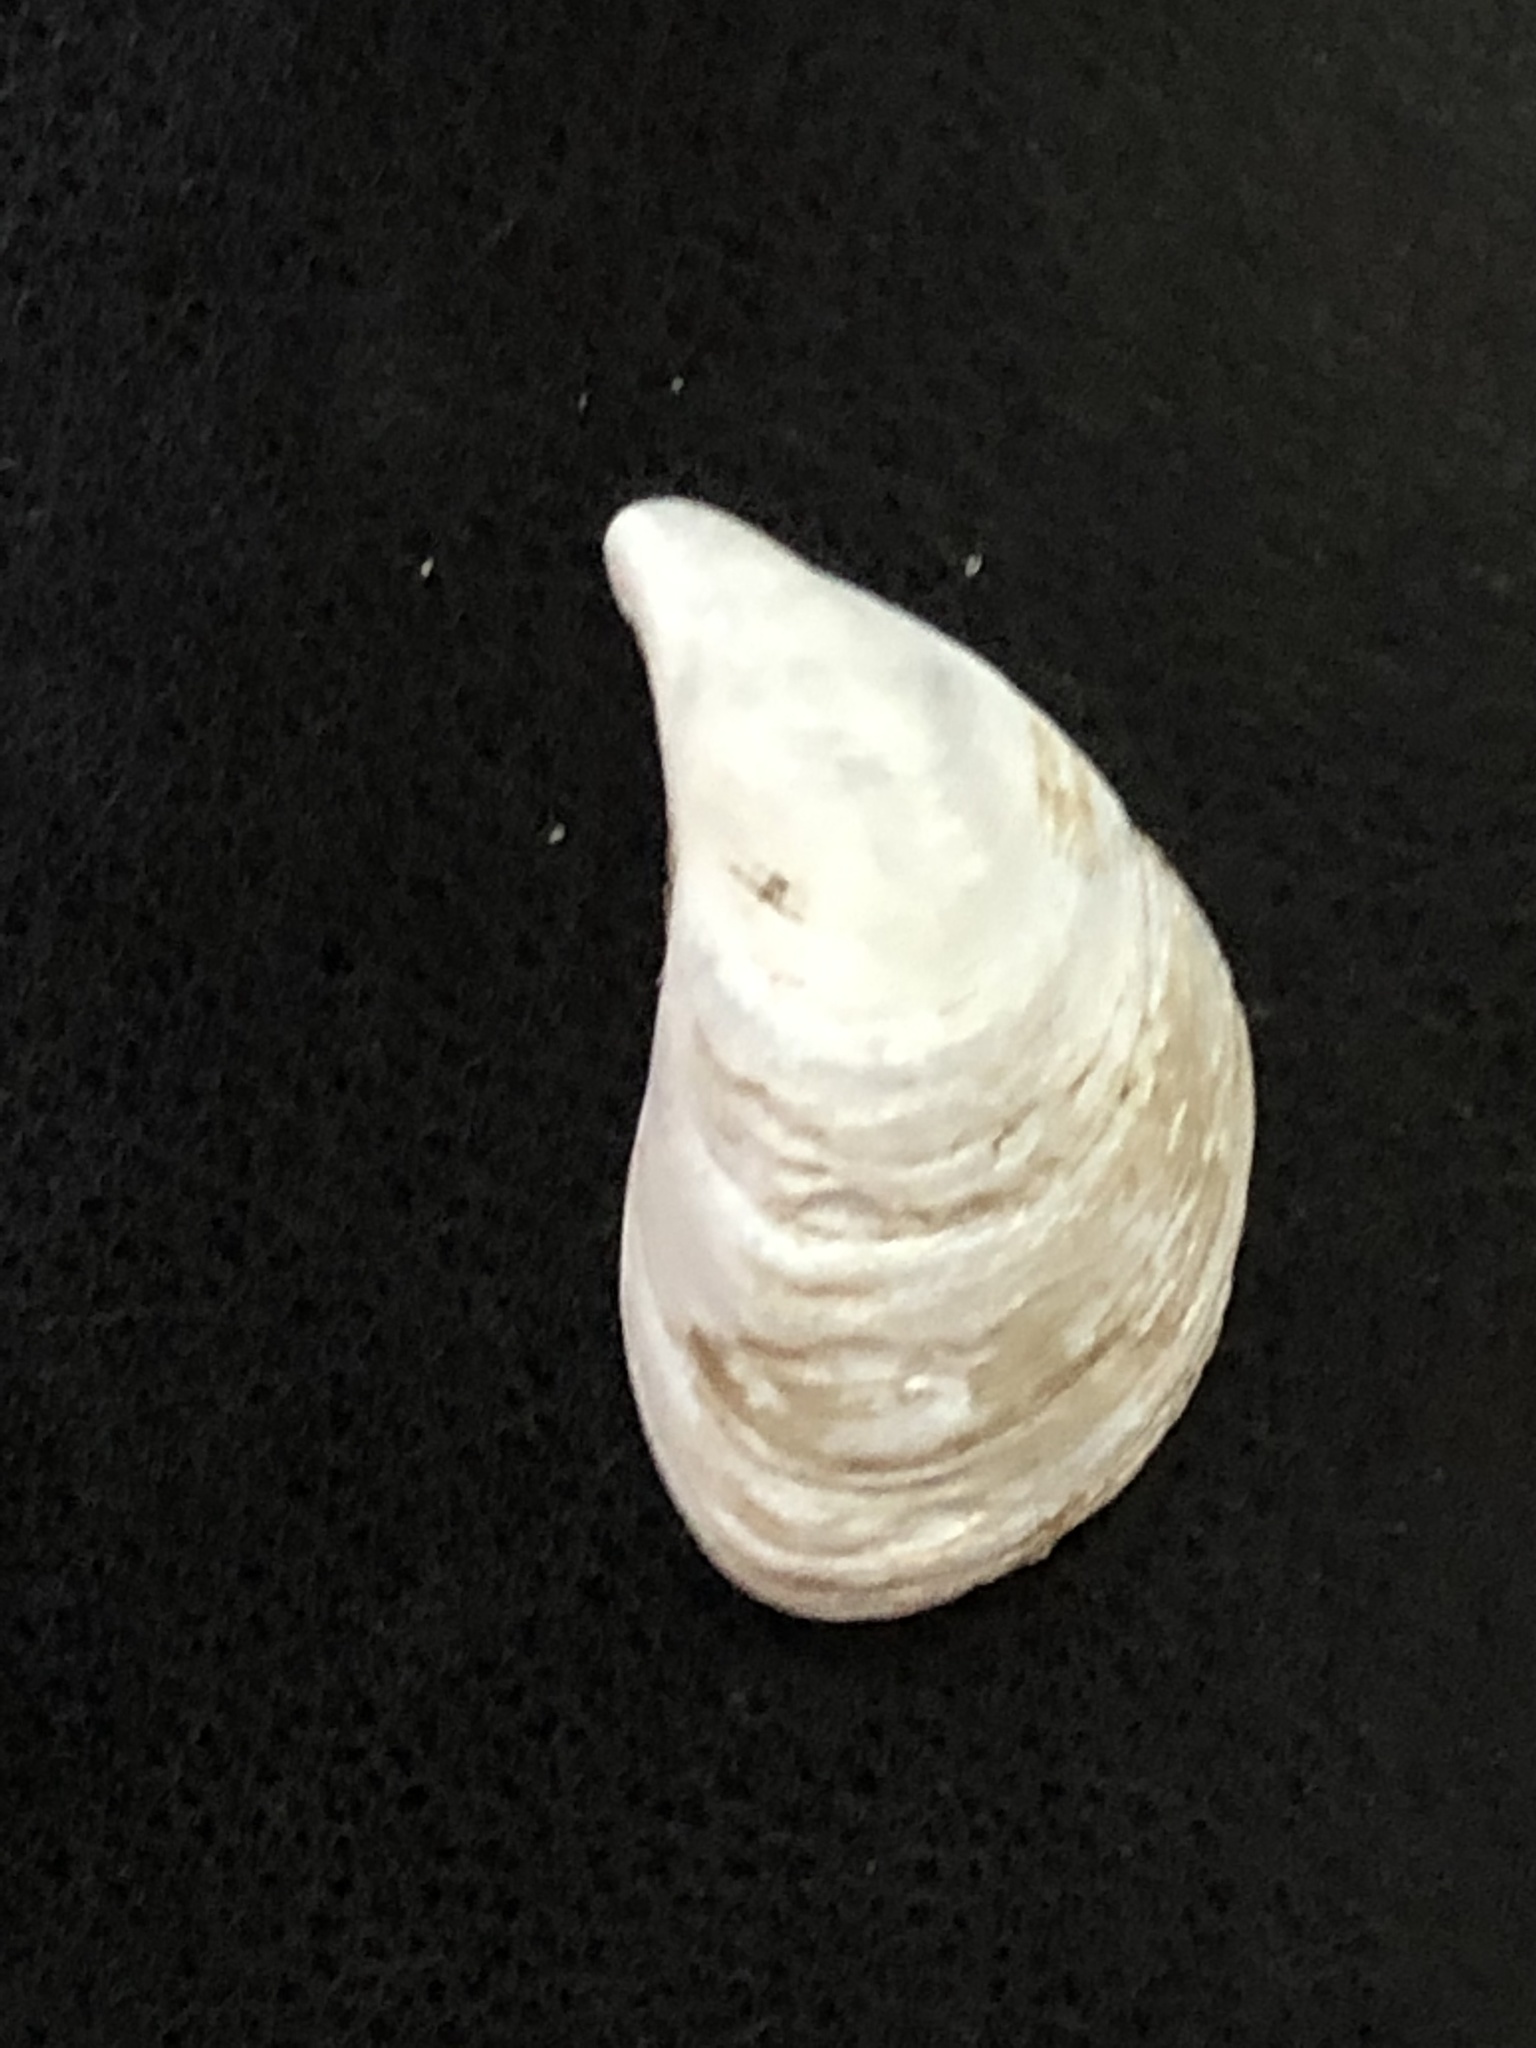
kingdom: Animalia
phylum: Mollusca
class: Bivalvia
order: Myida
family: Dreissenidae
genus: Dreissena
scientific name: Dreissena bugensis
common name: Quagga mussel
